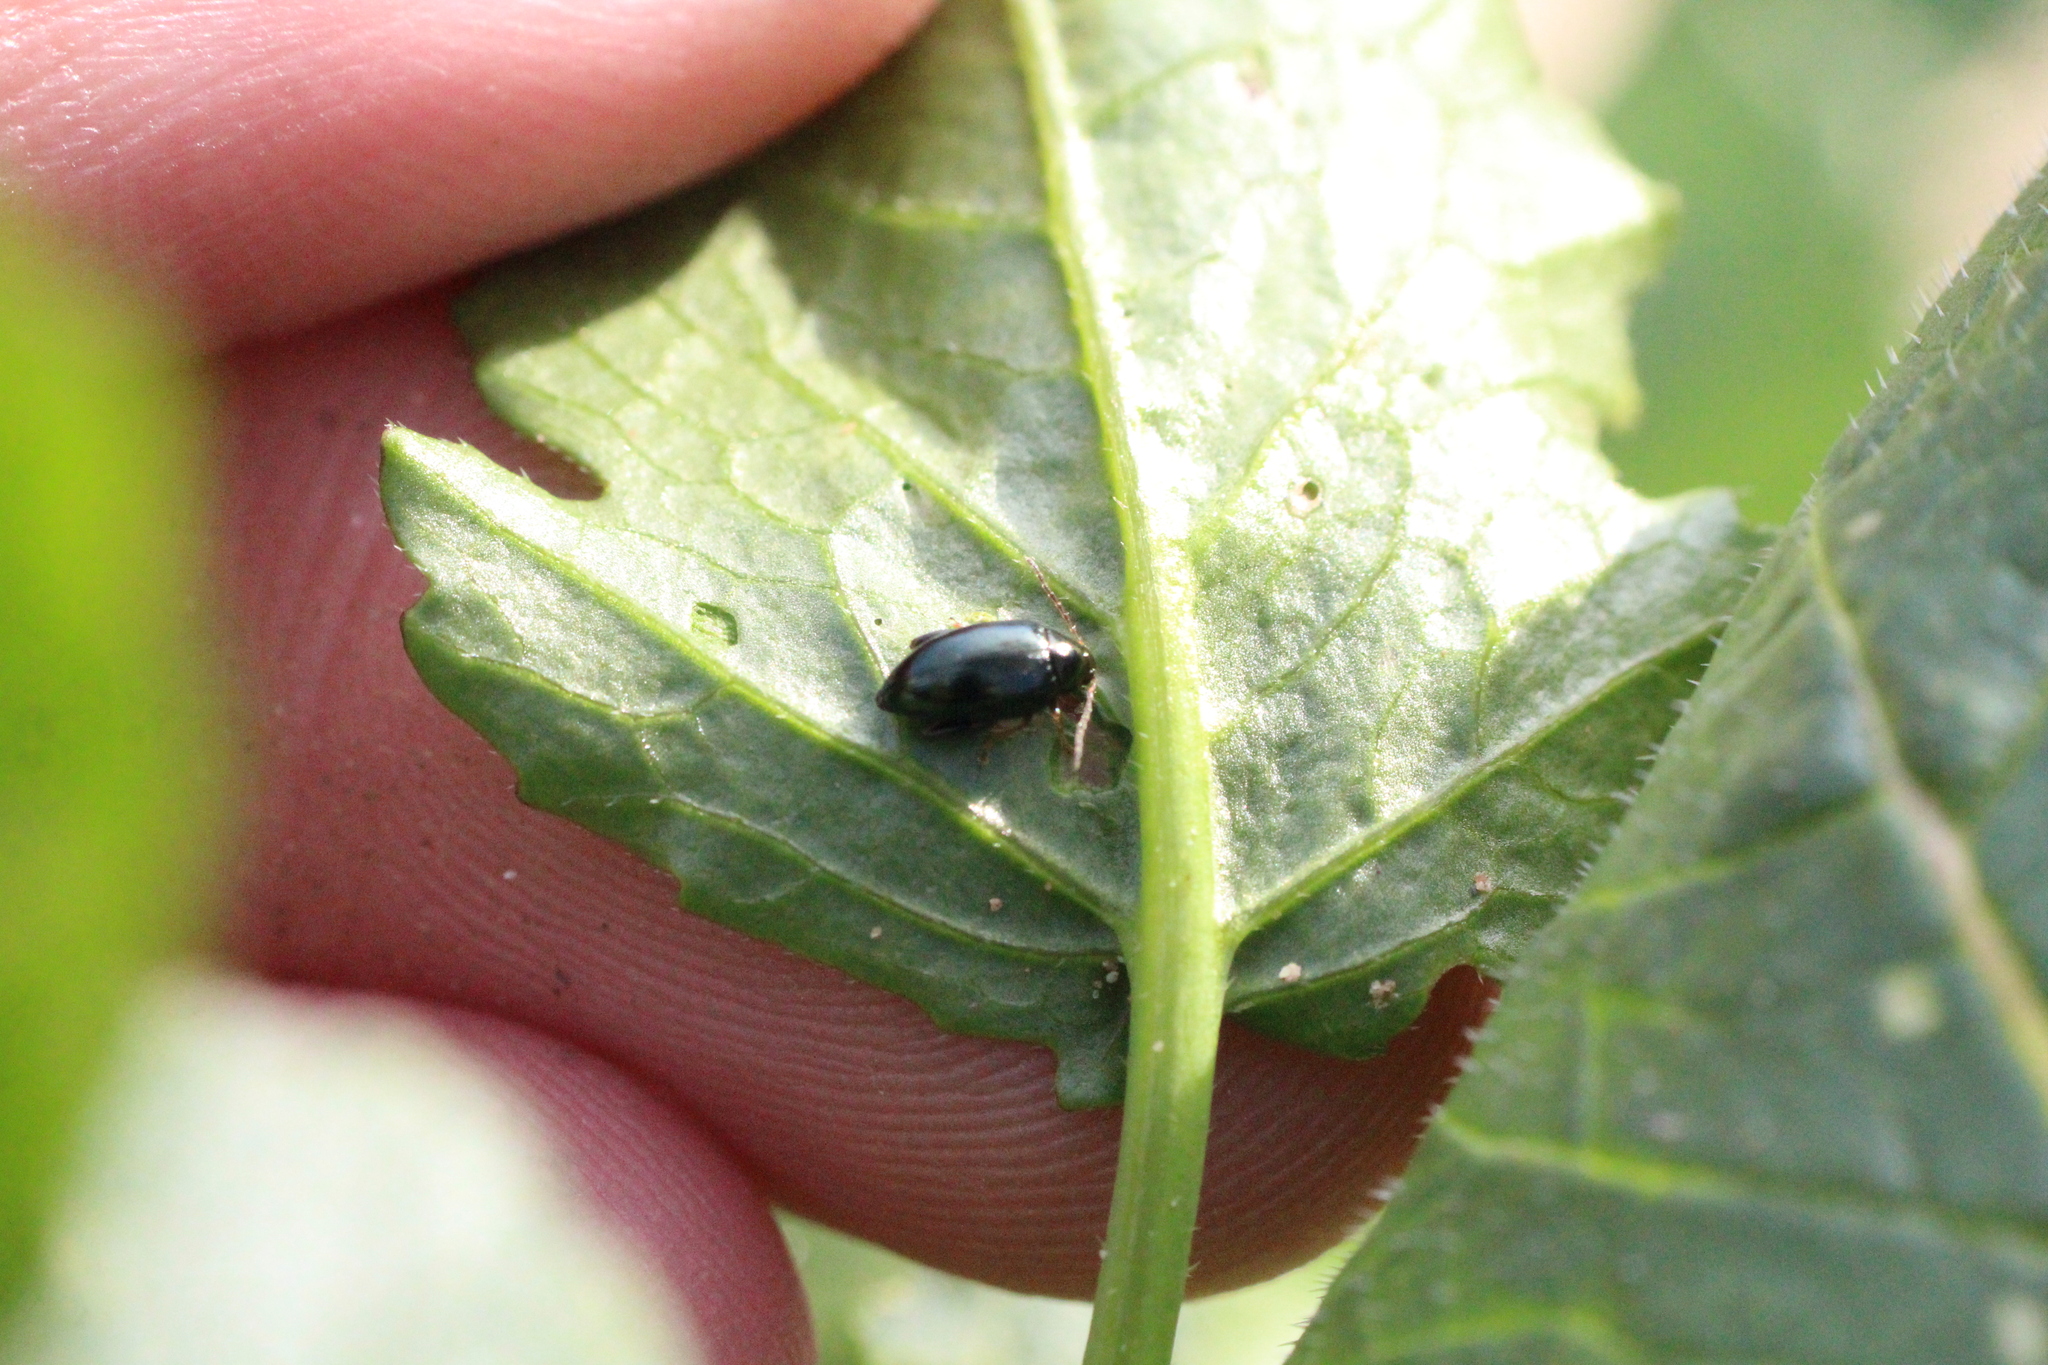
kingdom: Animalia
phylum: Arthropoda
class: Insecta
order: Coleoptera
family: Chrysomelidae
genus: Psylliodes
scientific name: Psylliodes chrysocephalus
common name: Cabbage-stem flea beetle
